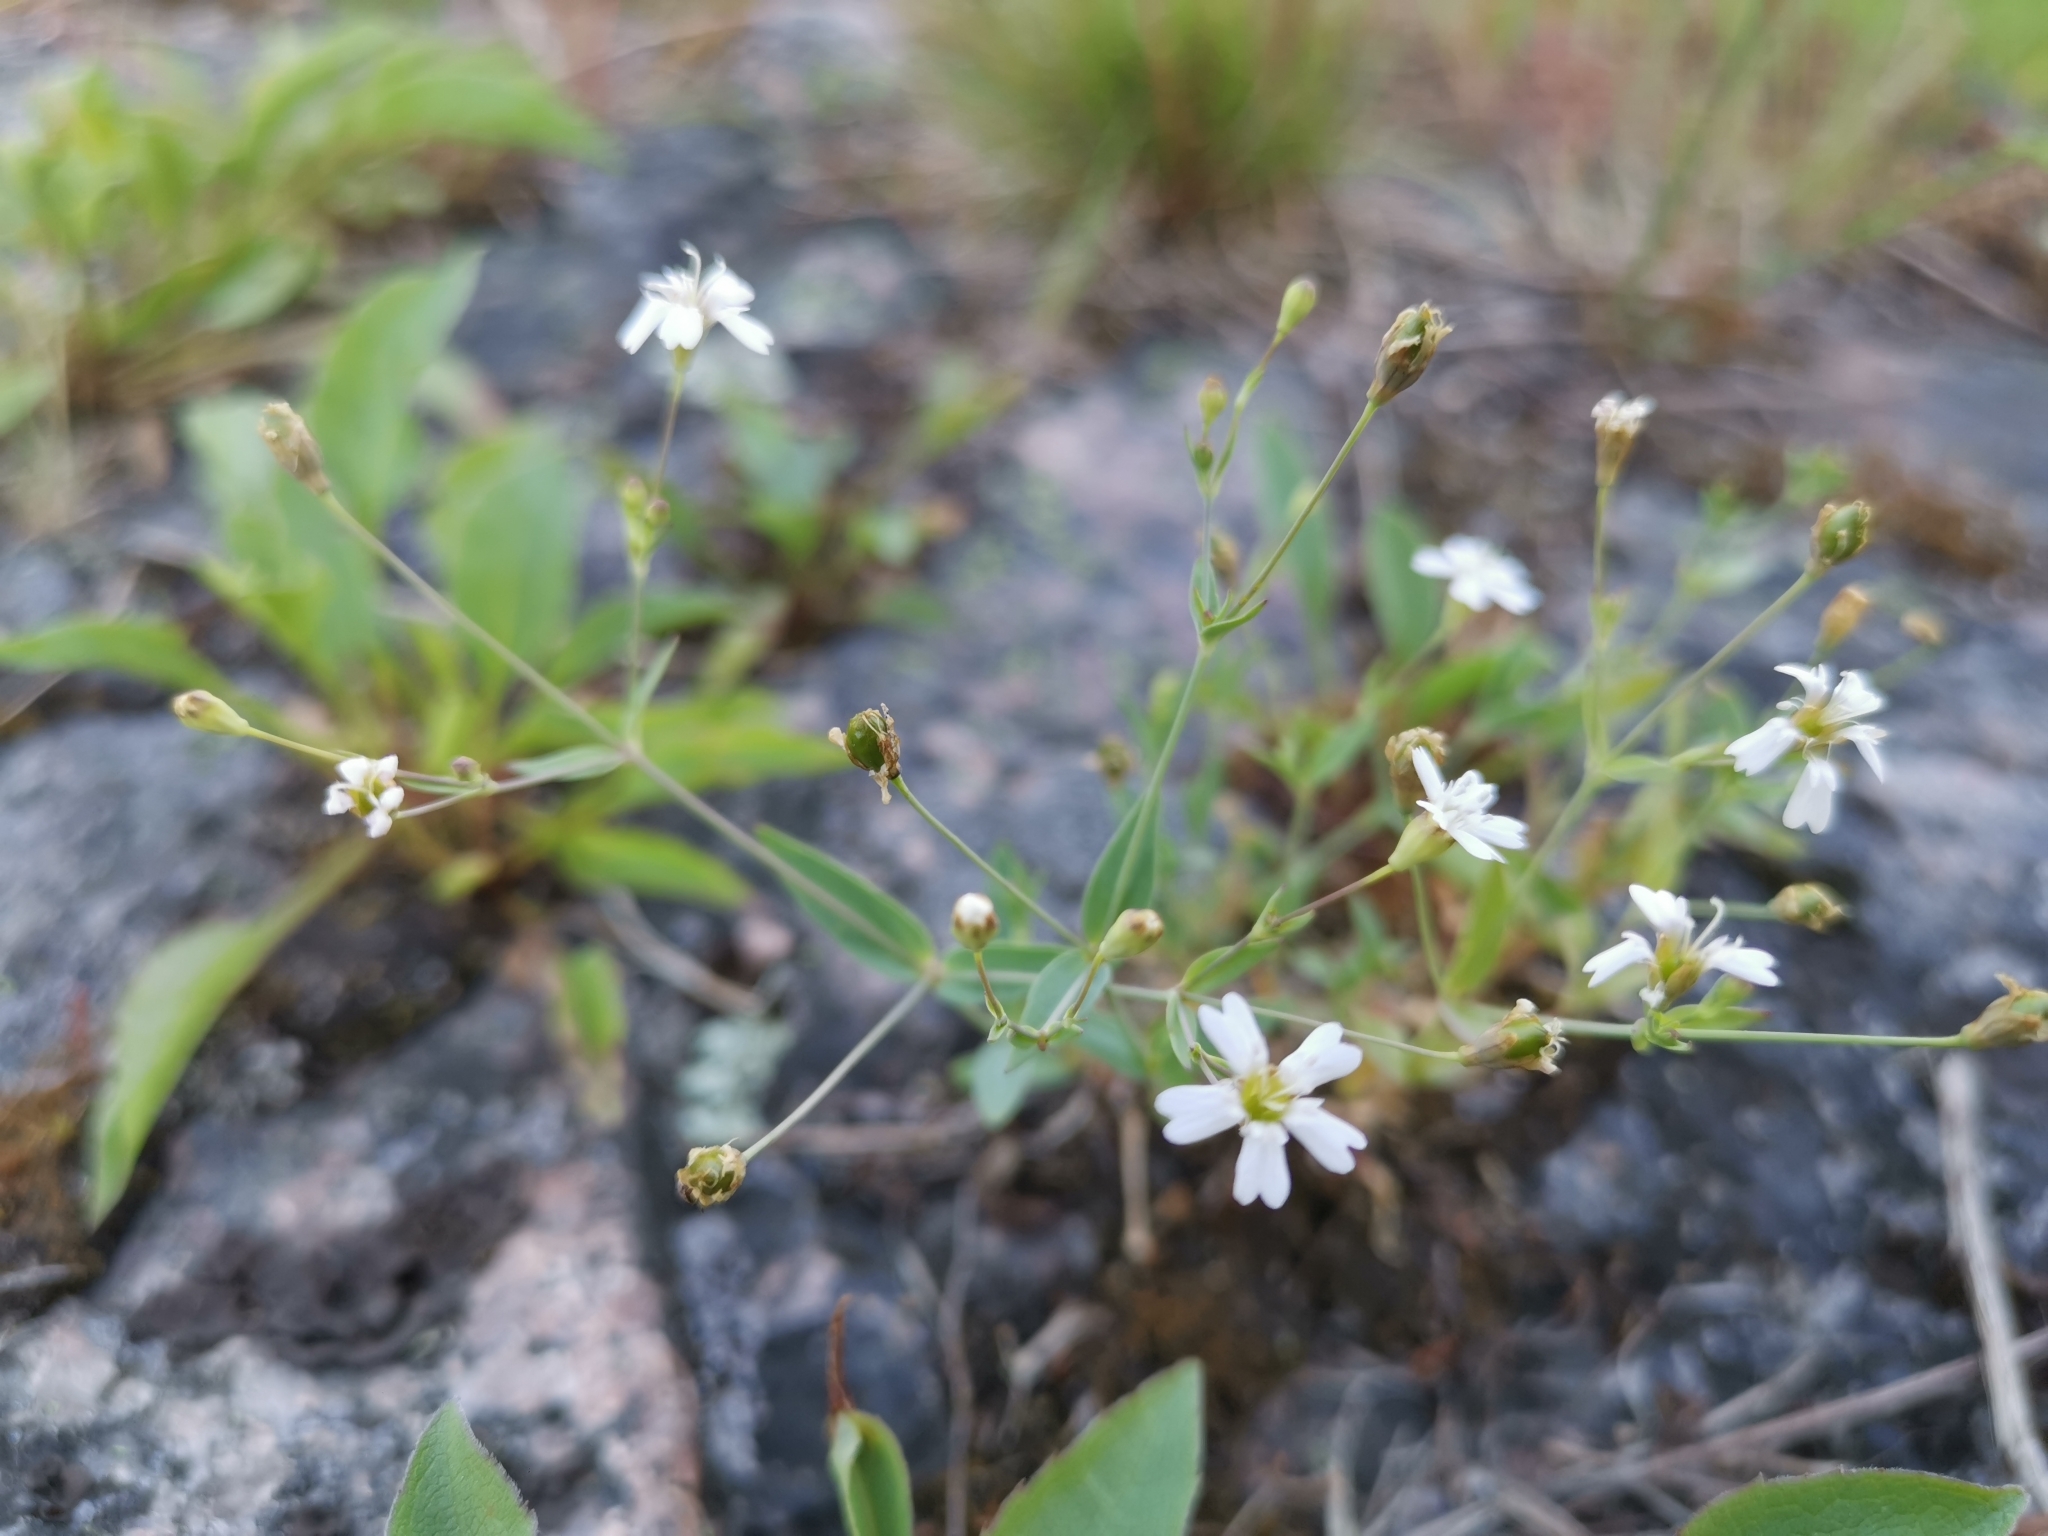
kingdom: Plantae
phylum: Tracheophyta
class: Magnoliopsida
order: Caryophyllales
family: Caryophyllaceae
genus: Rabelera
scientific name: Rabelera holostea
